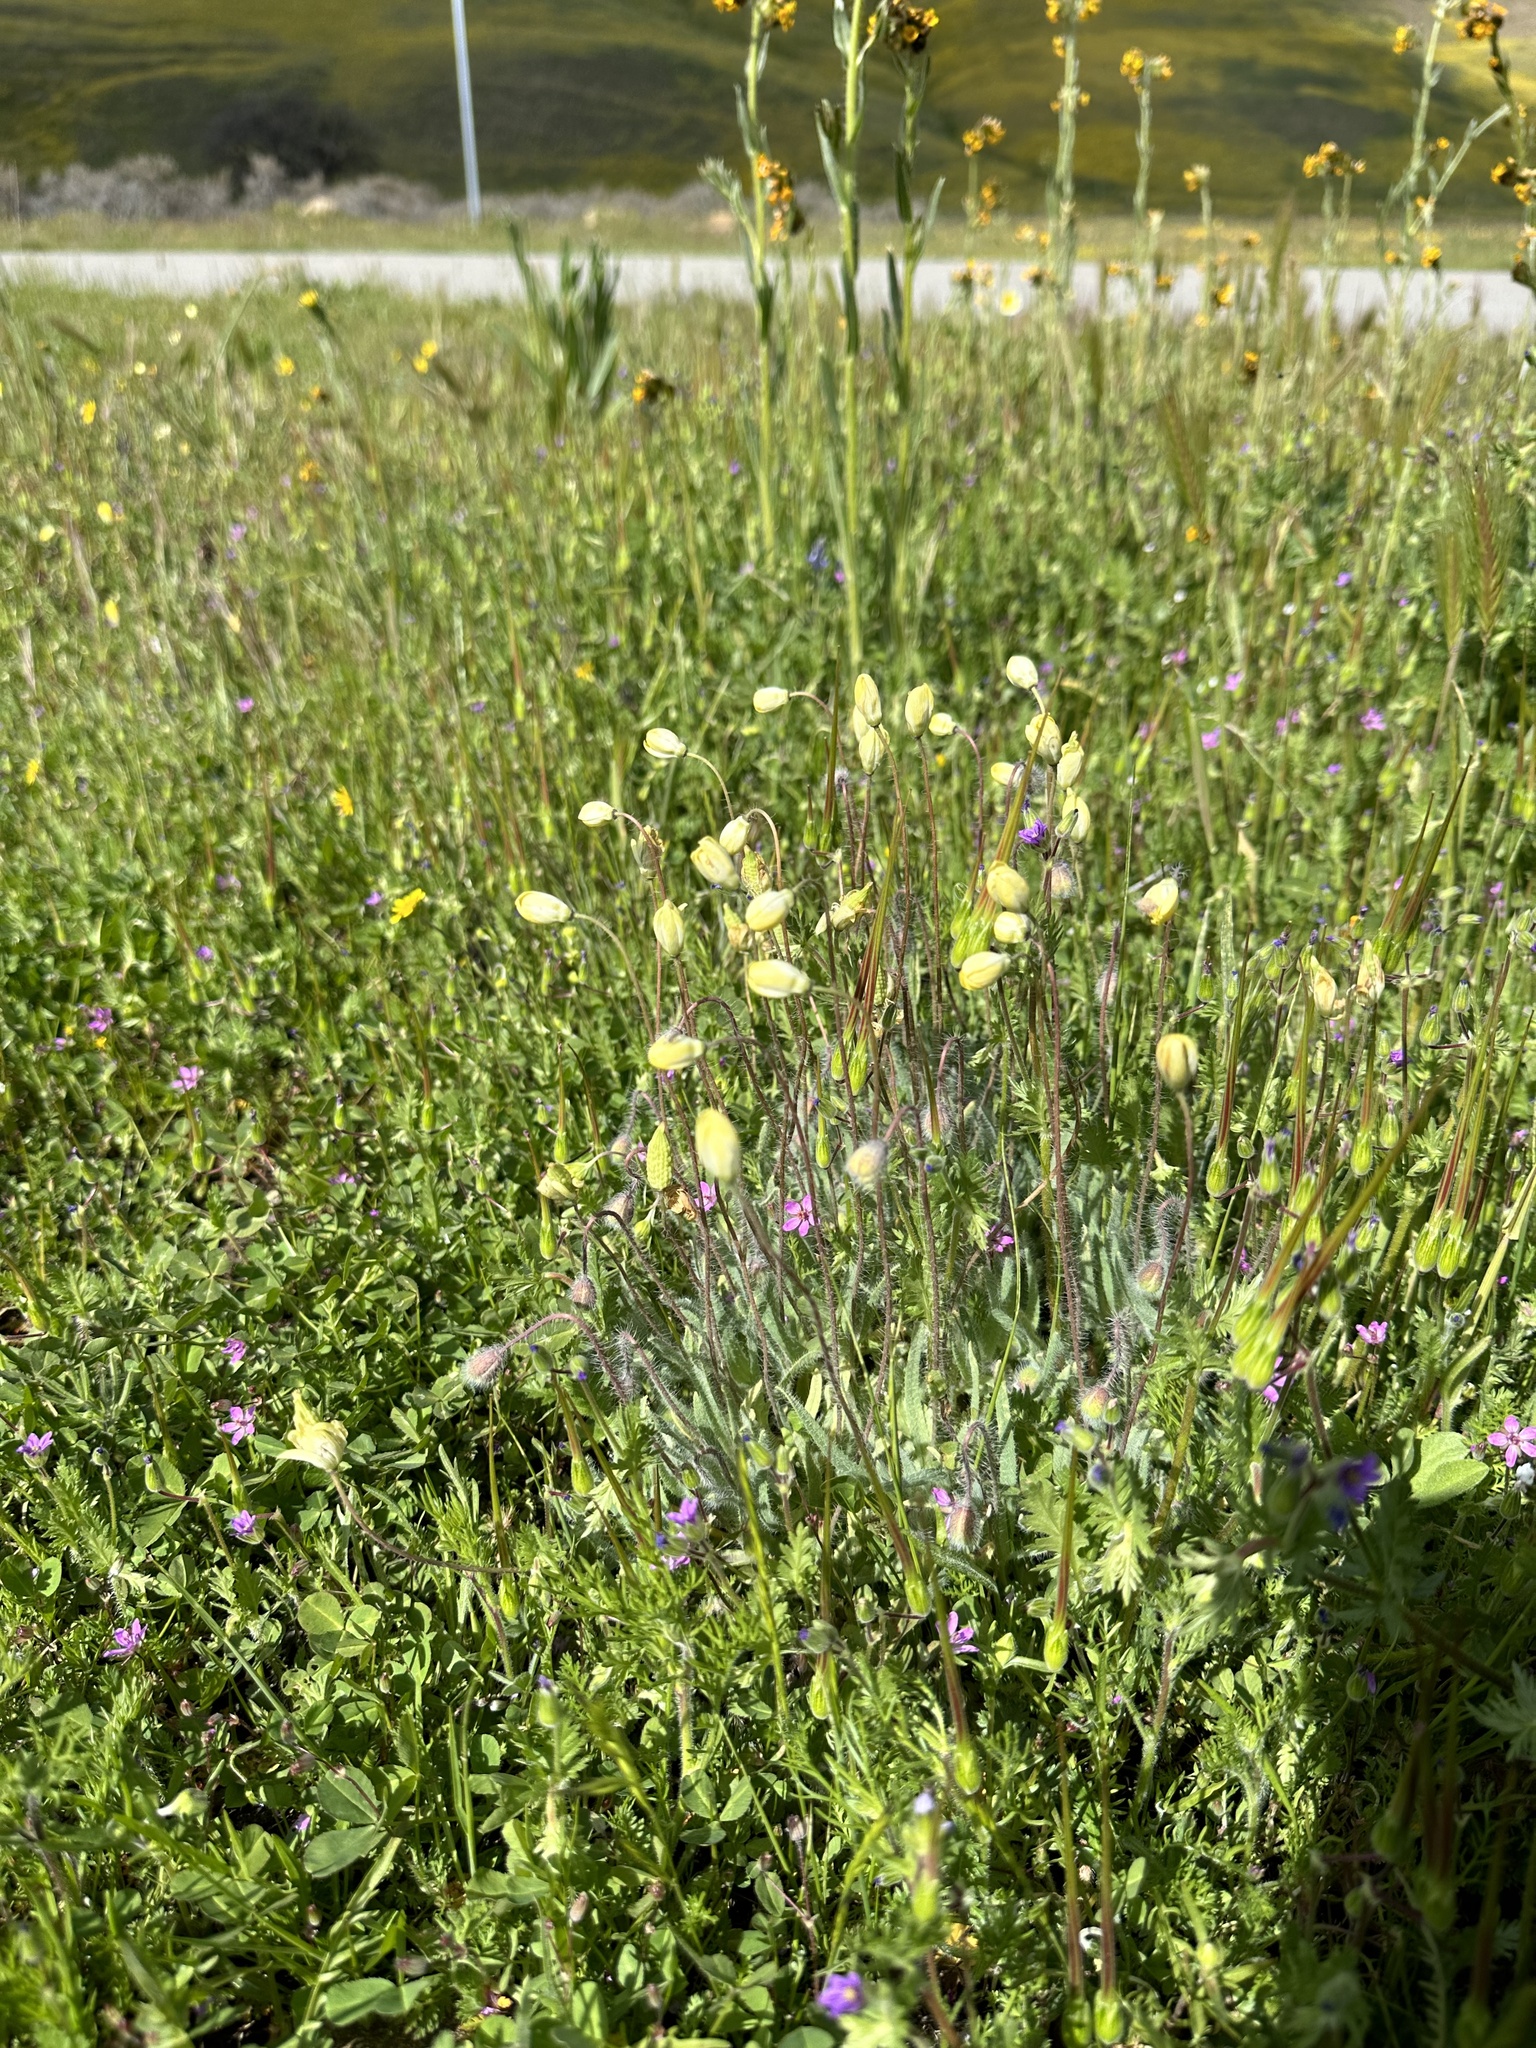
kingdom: Plantae
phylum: Tracheophyta
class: Magnoliopsida
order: Ranunculales
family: Papaveraceae
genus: Platystemon
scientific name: Platystemon californicus
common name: Cream-cups
